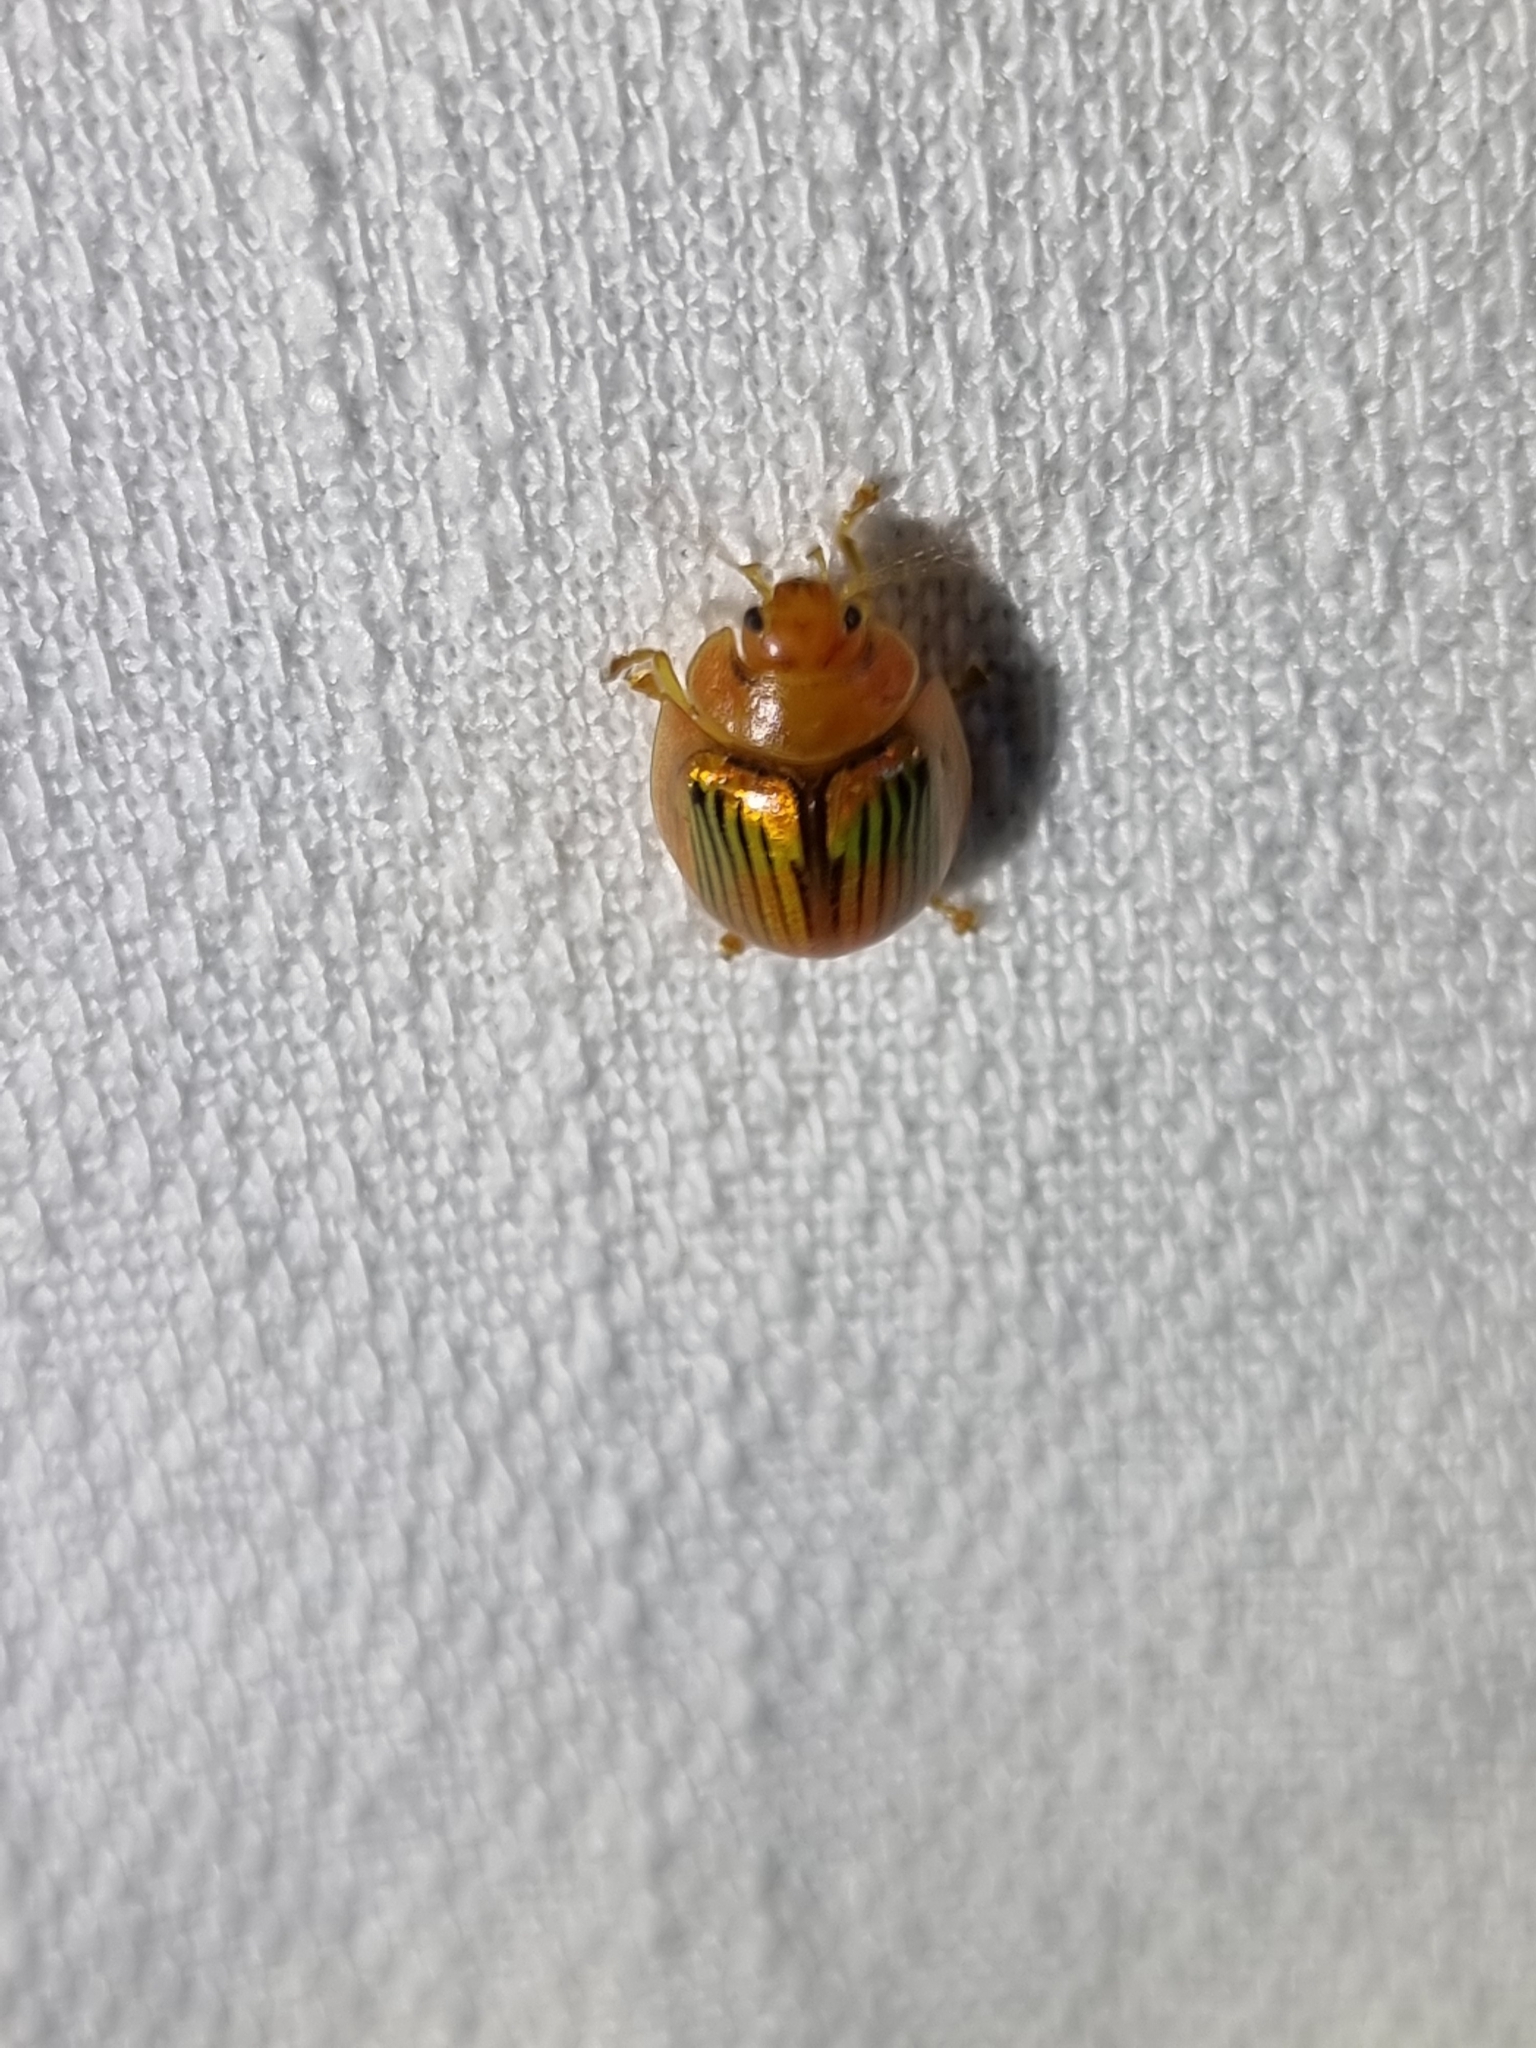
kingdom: Animalia
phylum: Arthropoda
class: Insecta
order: Coleoptera
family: Chrysomelidae
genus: Paropsisterna
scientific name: Paropsisterna
